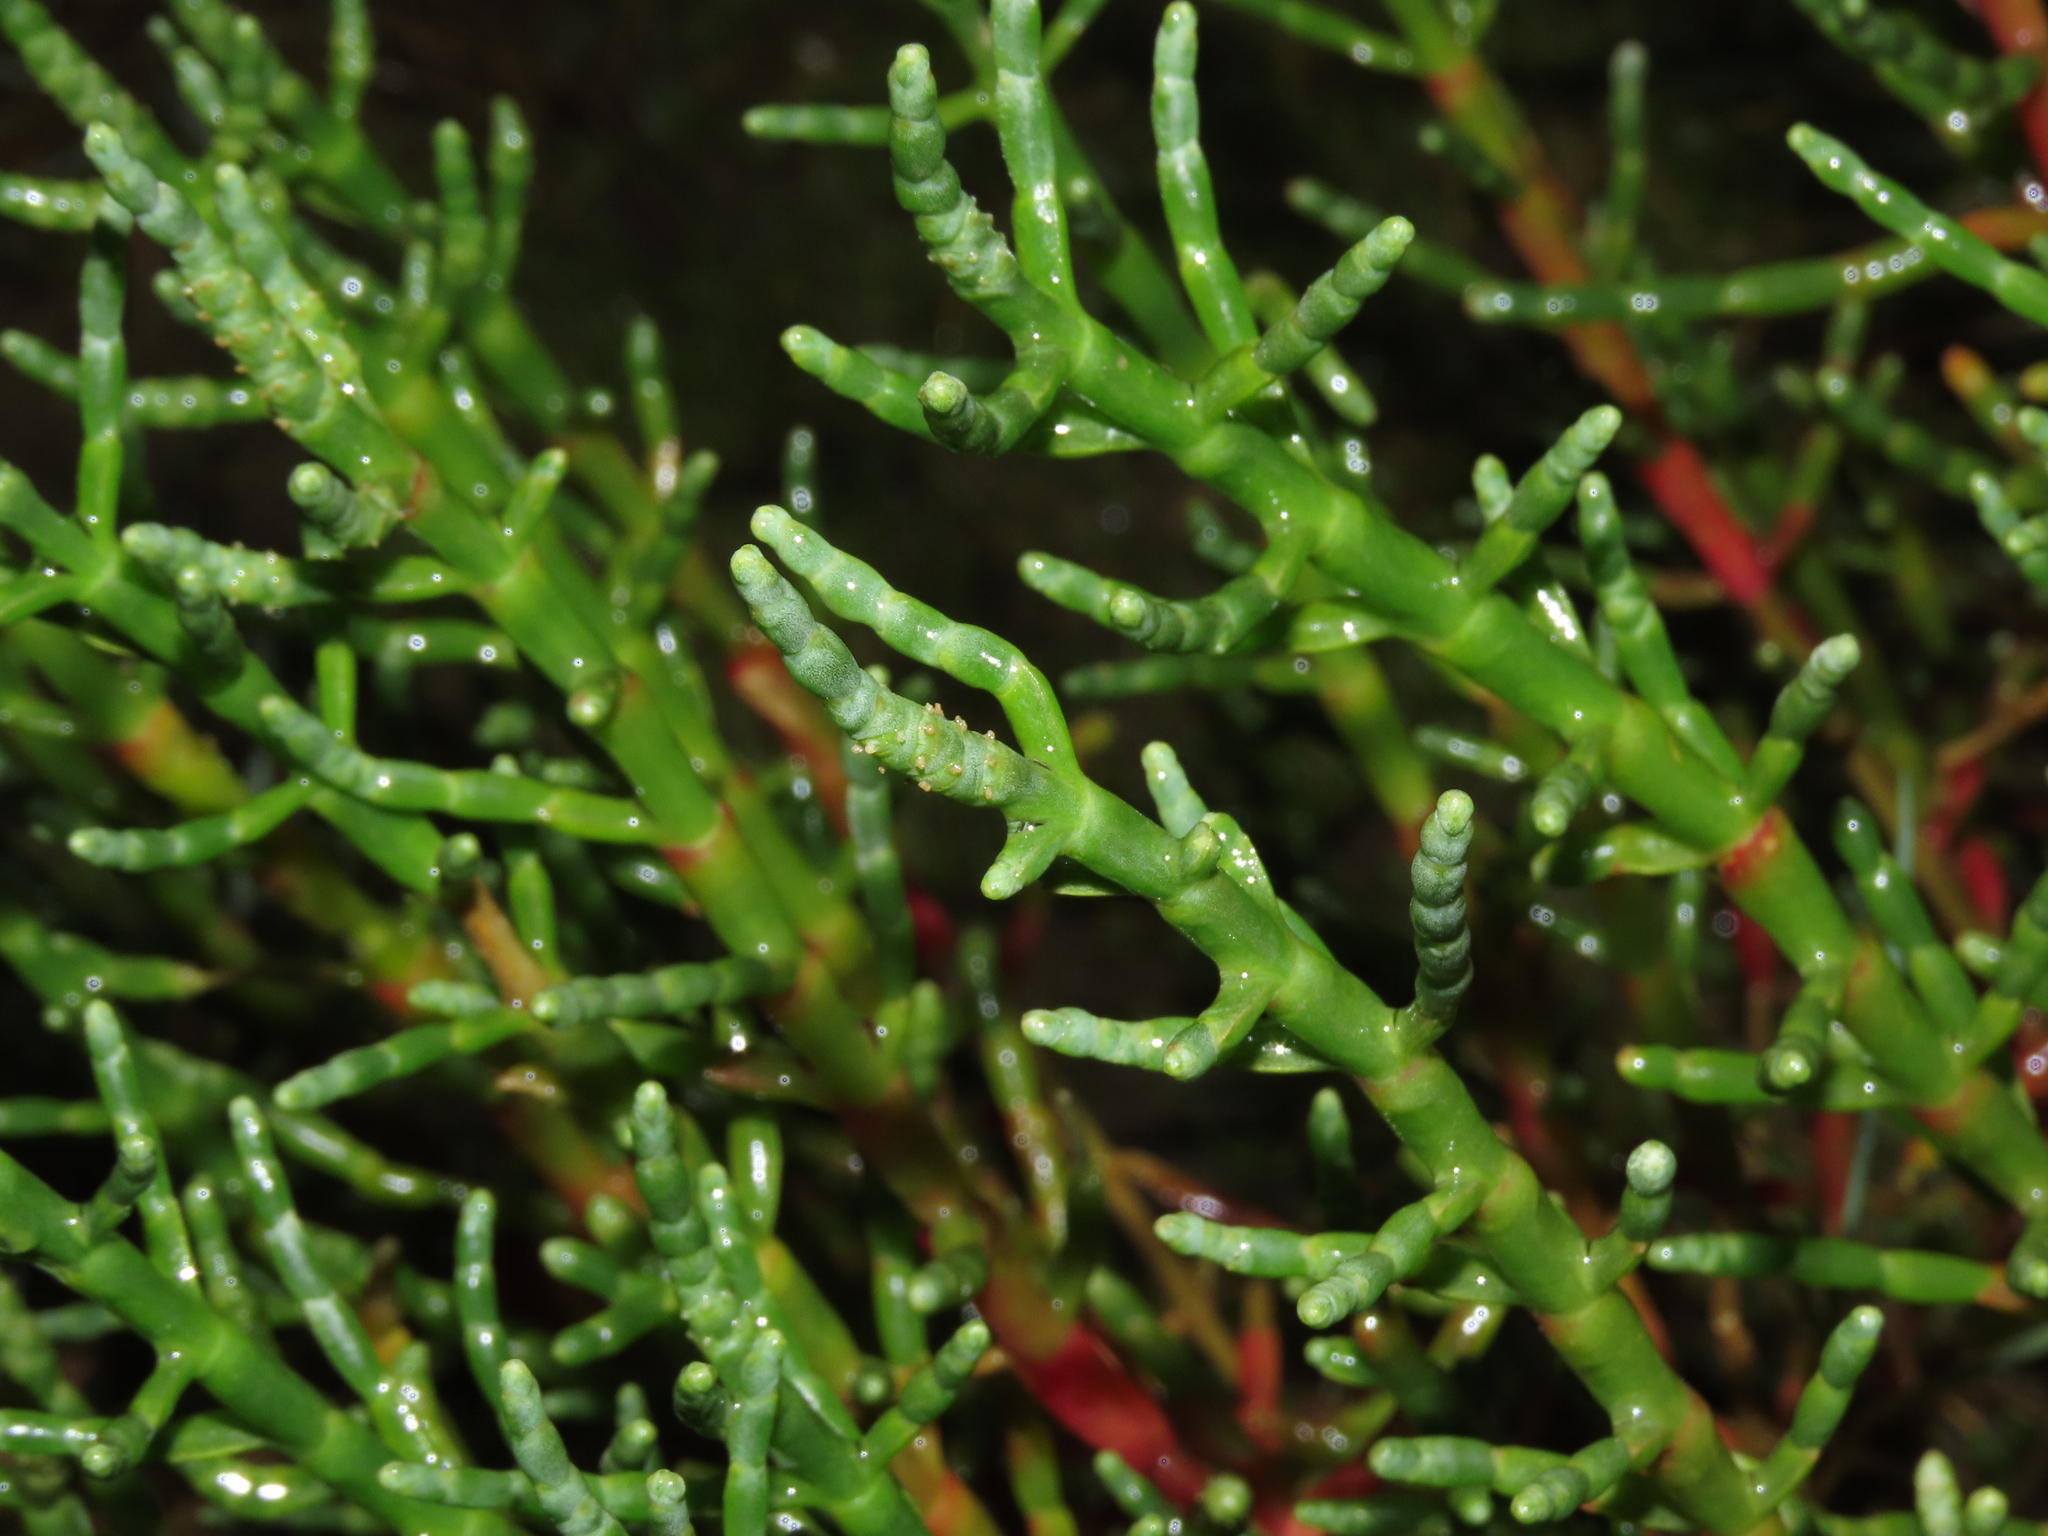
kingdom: Plantae
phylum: Tracheophyta
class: Magnoliopsida
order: Caryophyllales
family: Amaranthaceae
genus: Salicornia
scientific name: Salicornia neei
